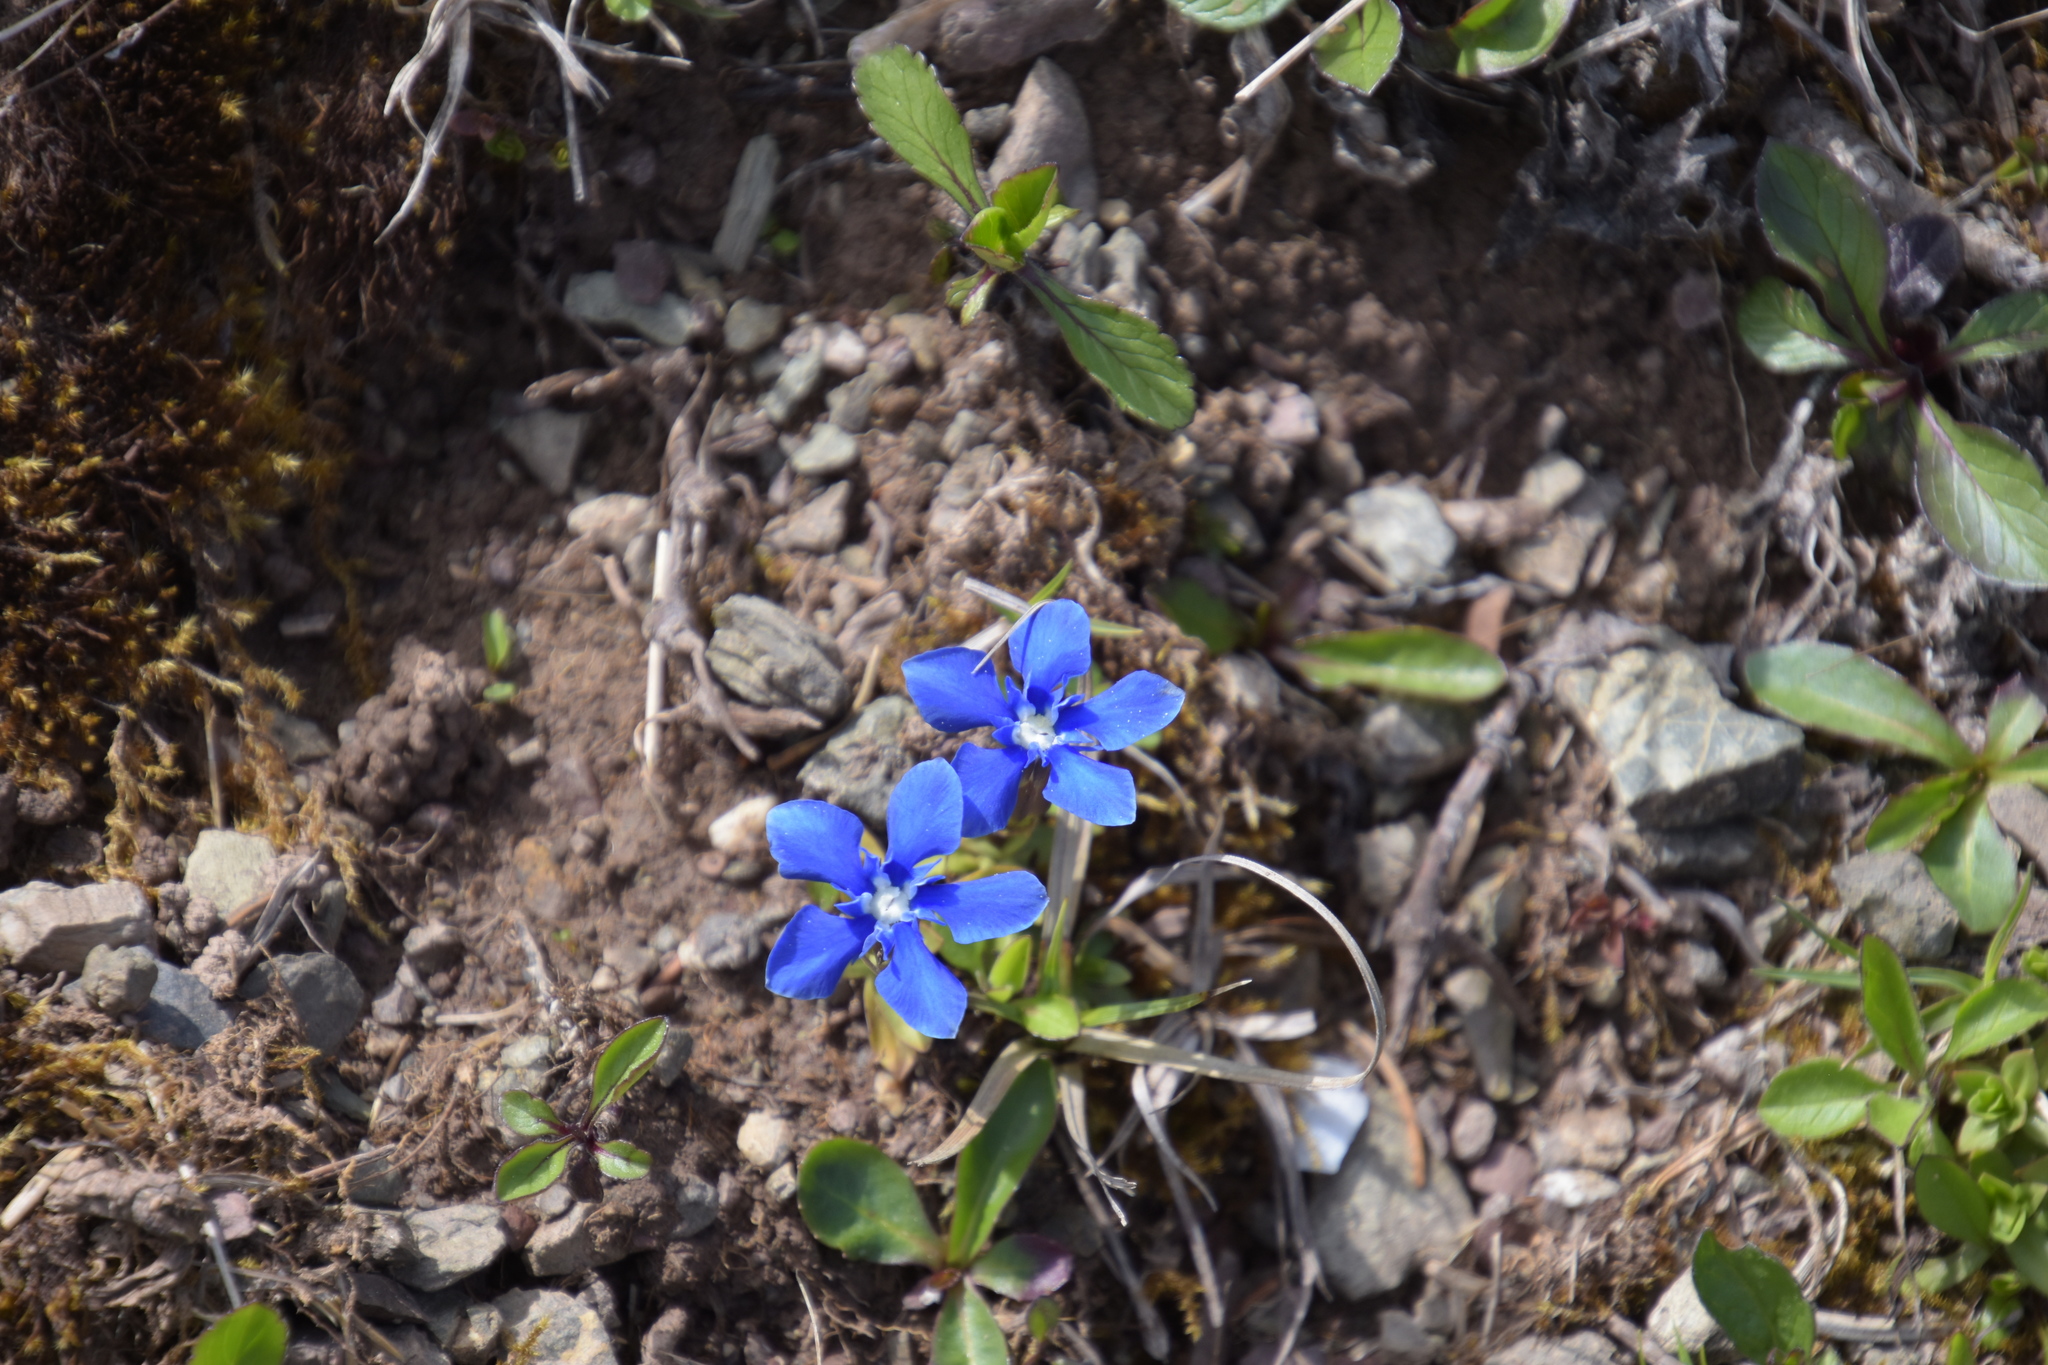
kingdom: Plantae
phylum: Tracheophyta
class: Magnoliopsida
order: Gentianales
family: Gentianaceae
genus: Gentiana
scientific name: Gentiana verna
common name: Spring gentian
